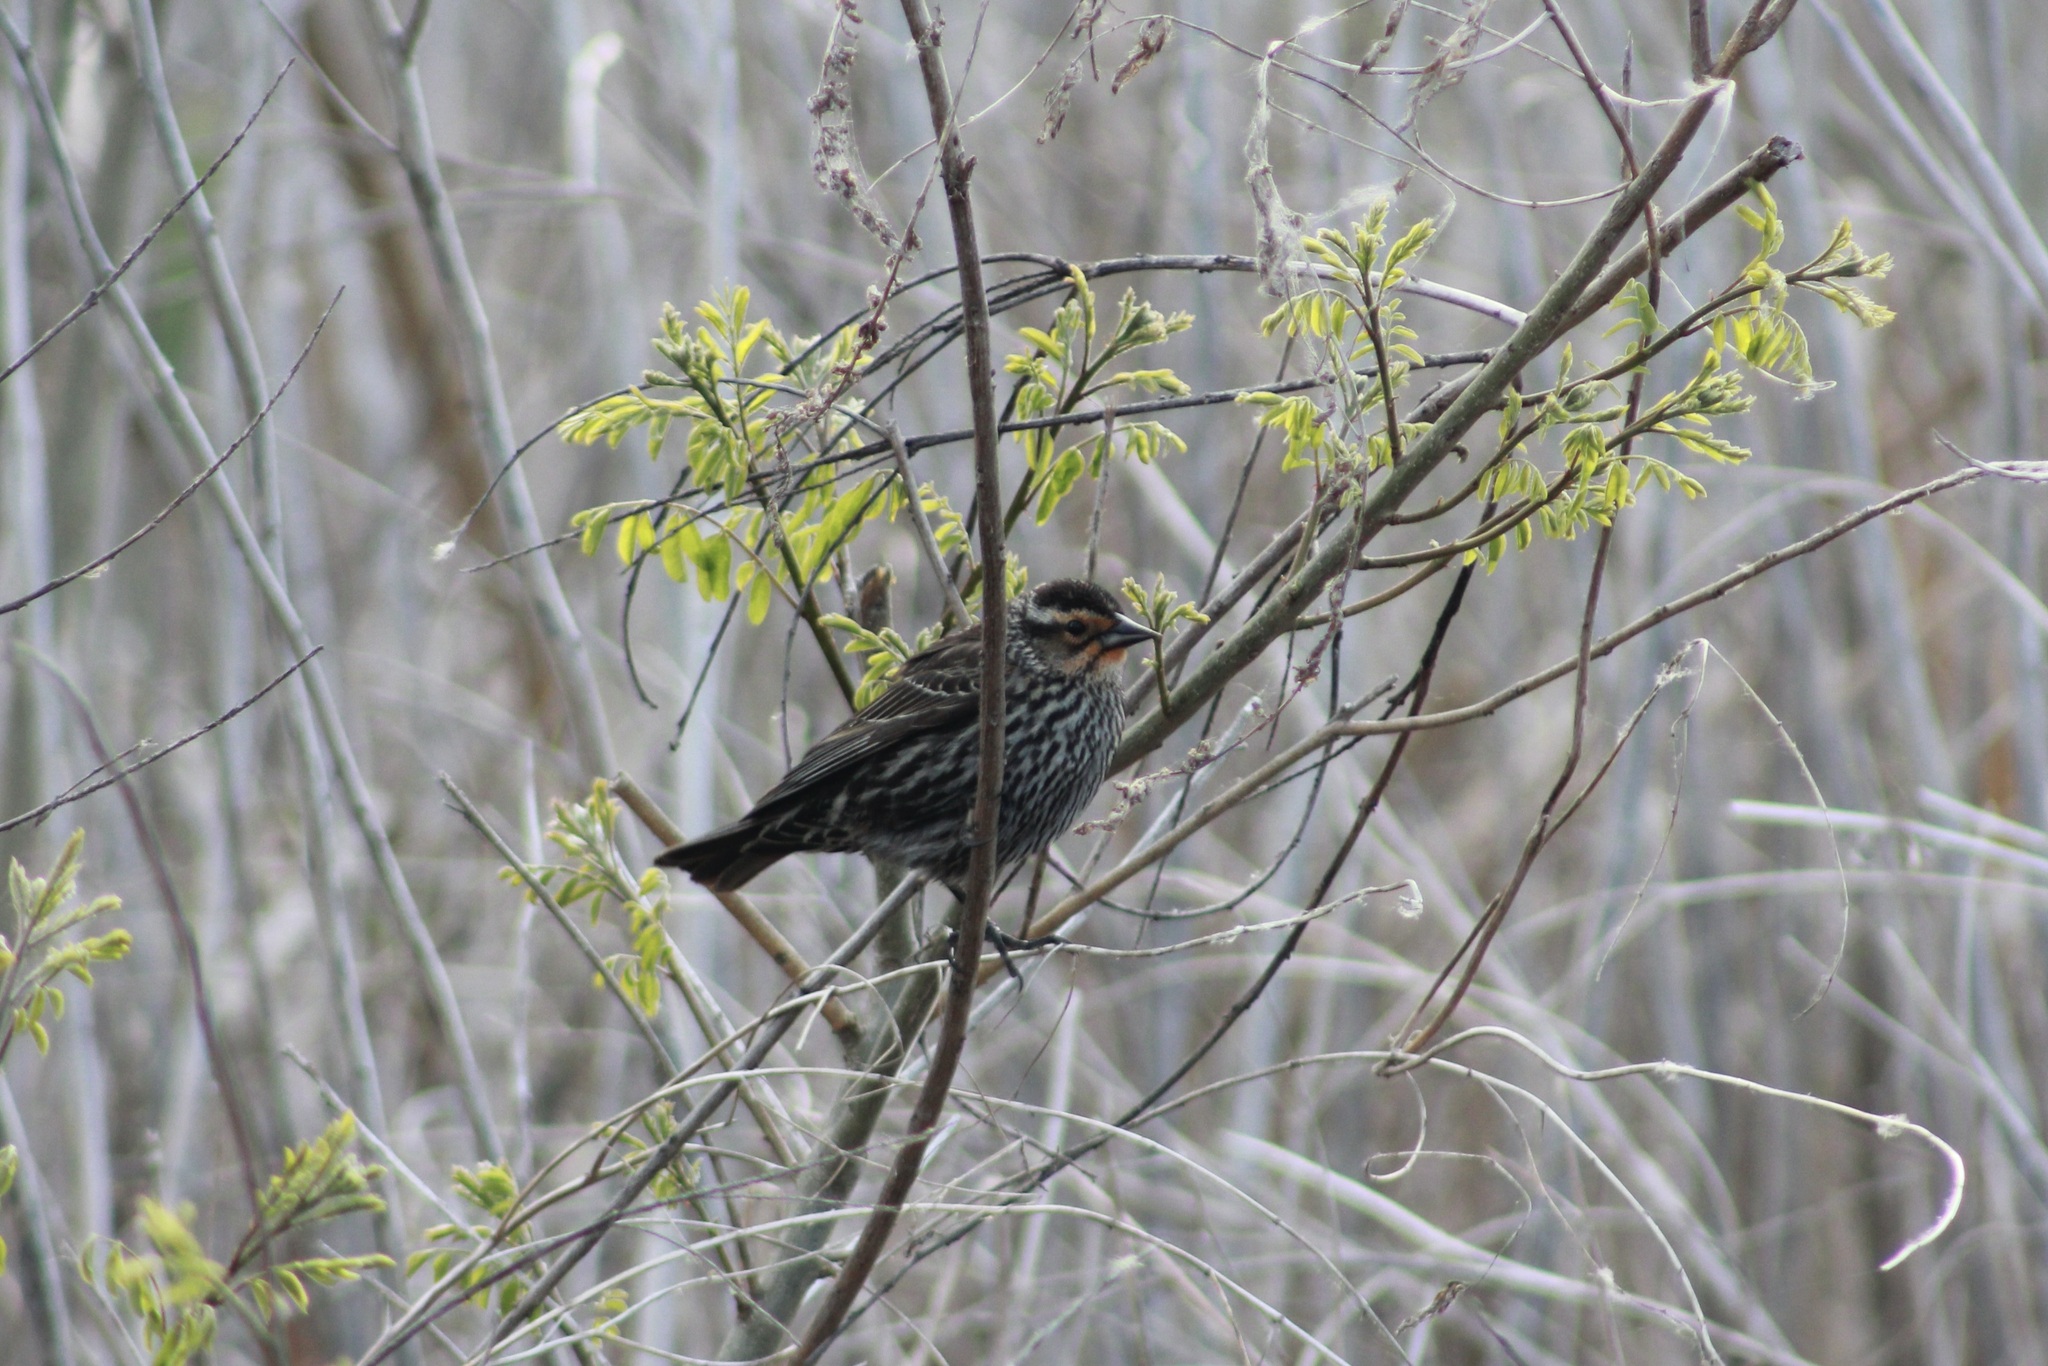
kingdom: Animalia
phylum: Chordata
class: Aves
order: Passeriformes
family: Icteridae
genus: Agelaius
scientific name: Agelaius phoeniceus
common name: Red-winged blackbird
